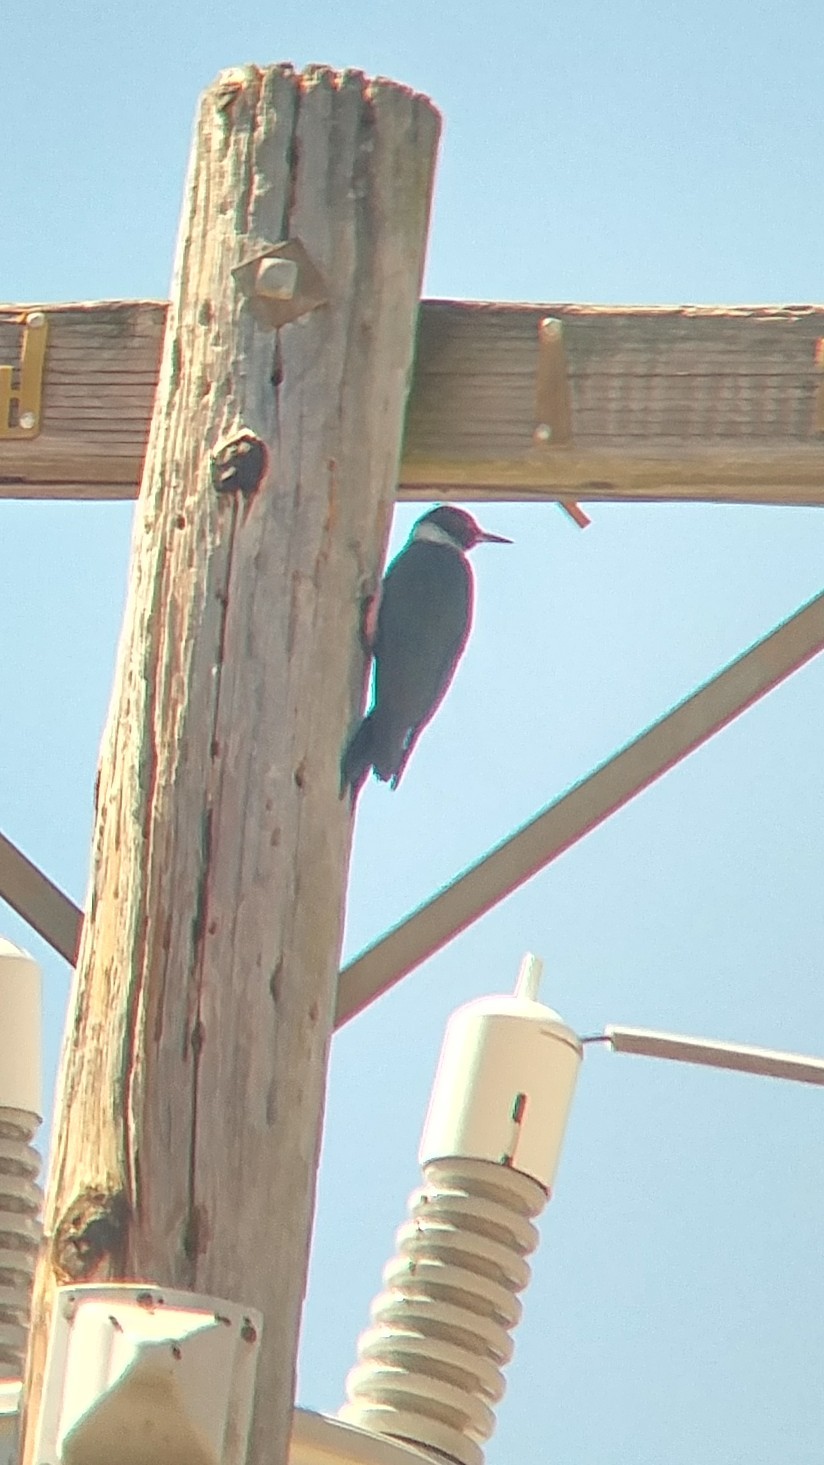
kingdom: Animalia
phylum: Chordata
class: Aves
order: Piciformes
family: Picidae
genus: Melanerpes
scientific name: Melanerpes lewis
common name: Lewis's woodpecker
